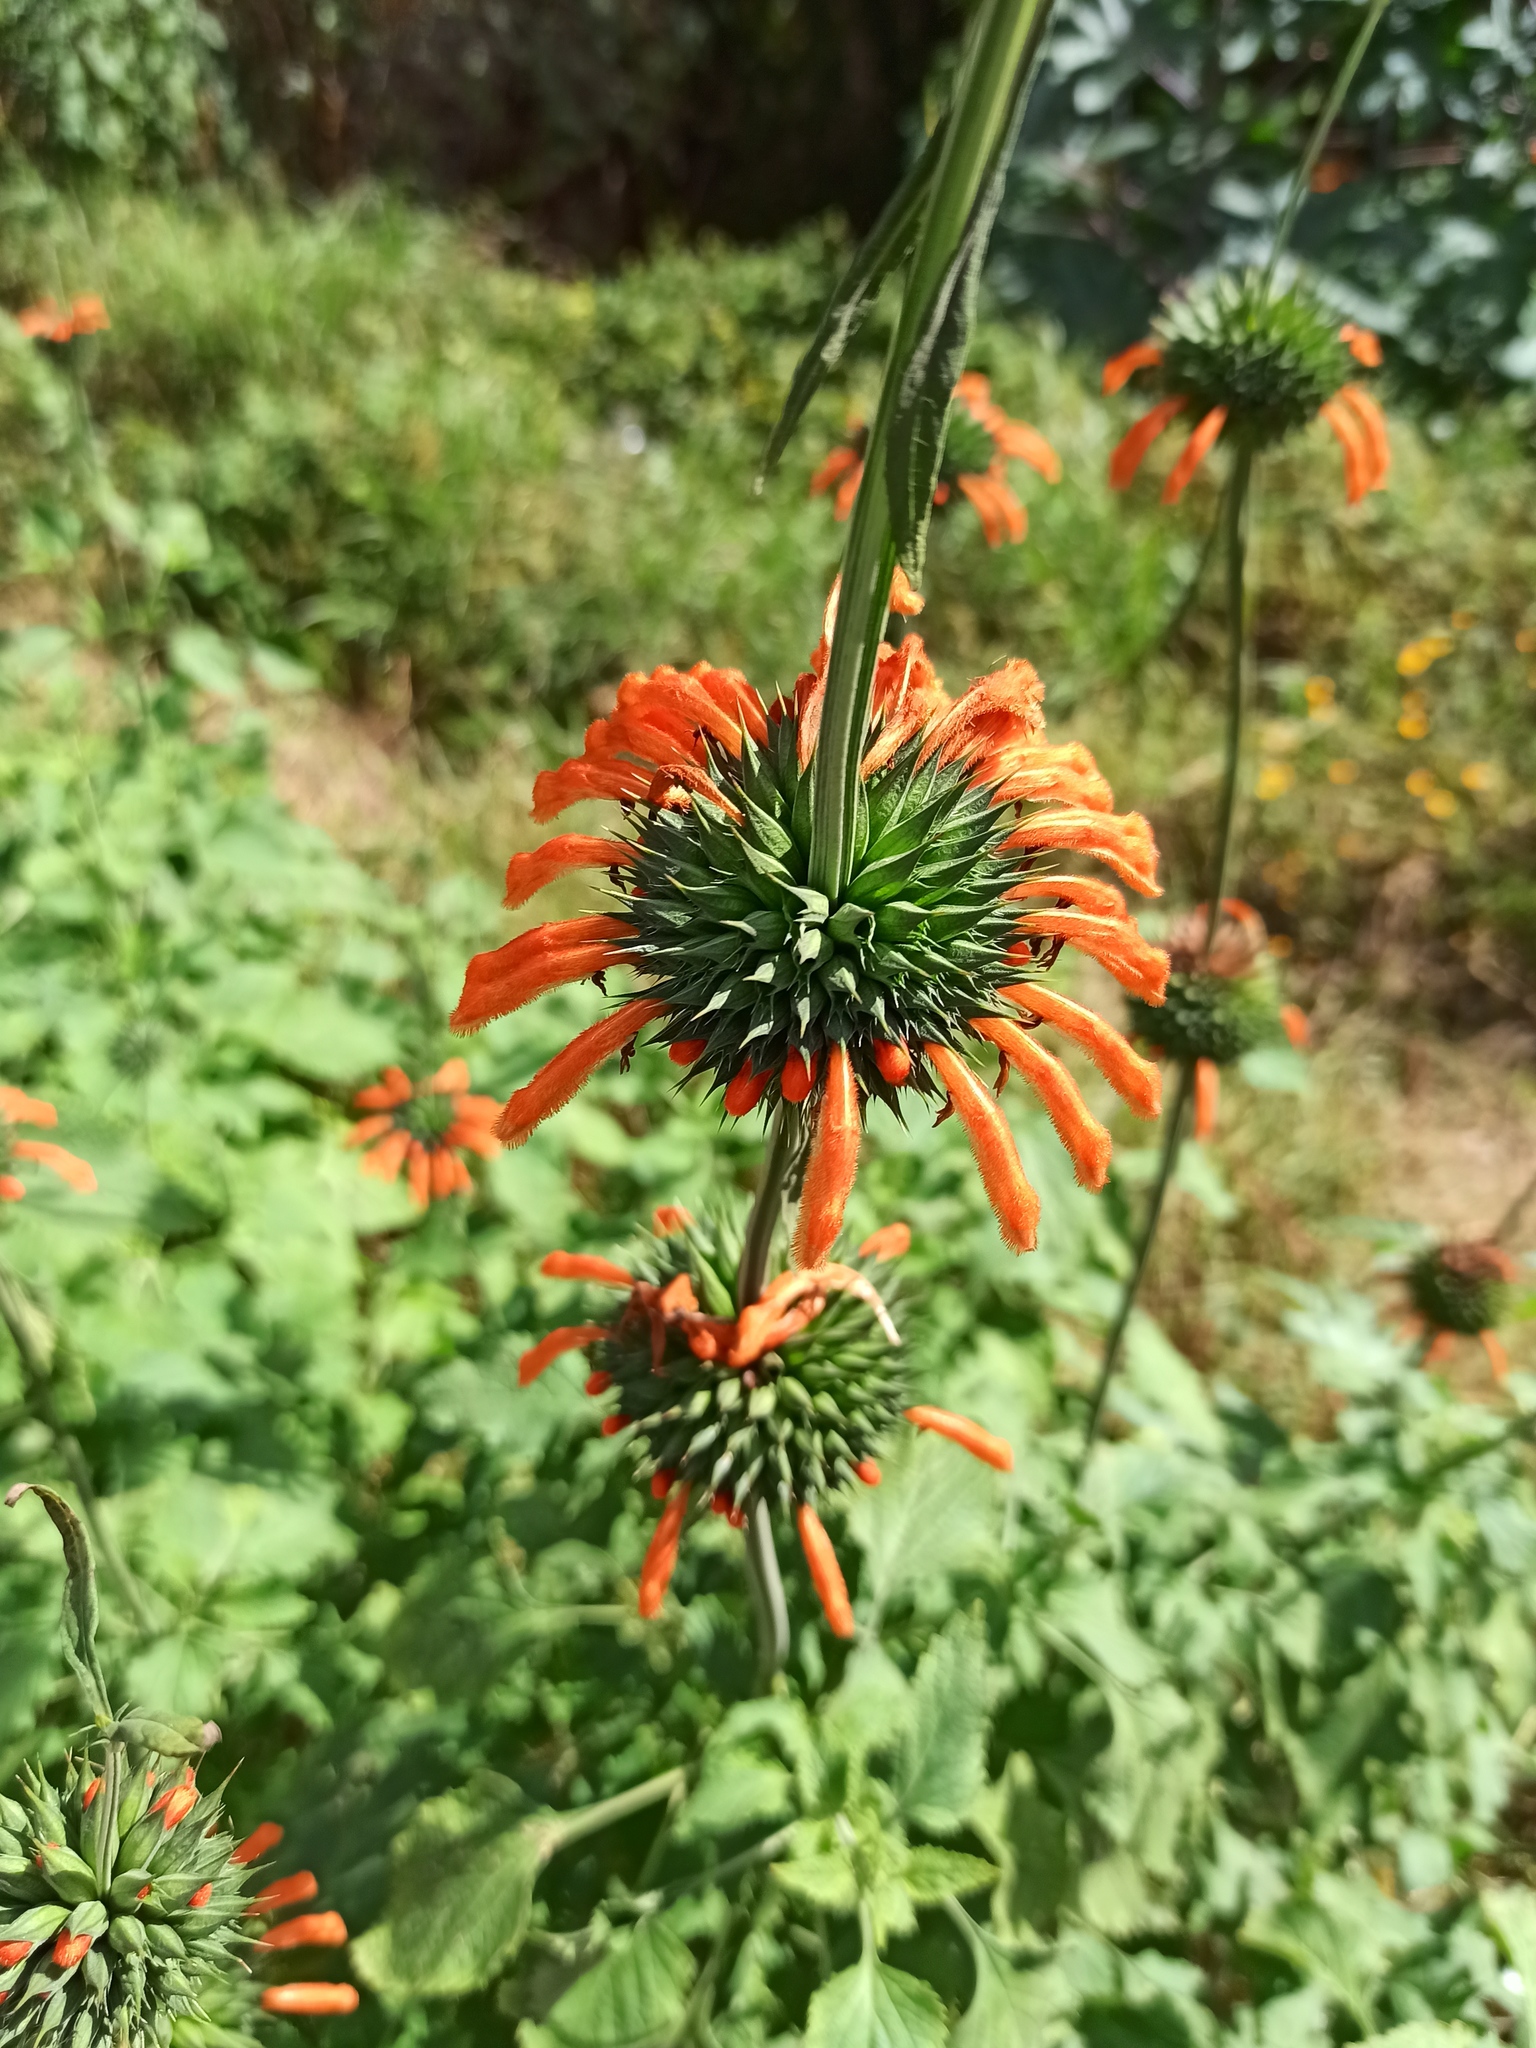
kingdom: Plantae
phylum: Tracheophyta
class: Magnoliopsida
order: Lamiales
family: Lamiaceae
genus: Leonotis
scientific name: Leonotis nepetifolia
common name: Christmas candlestick
